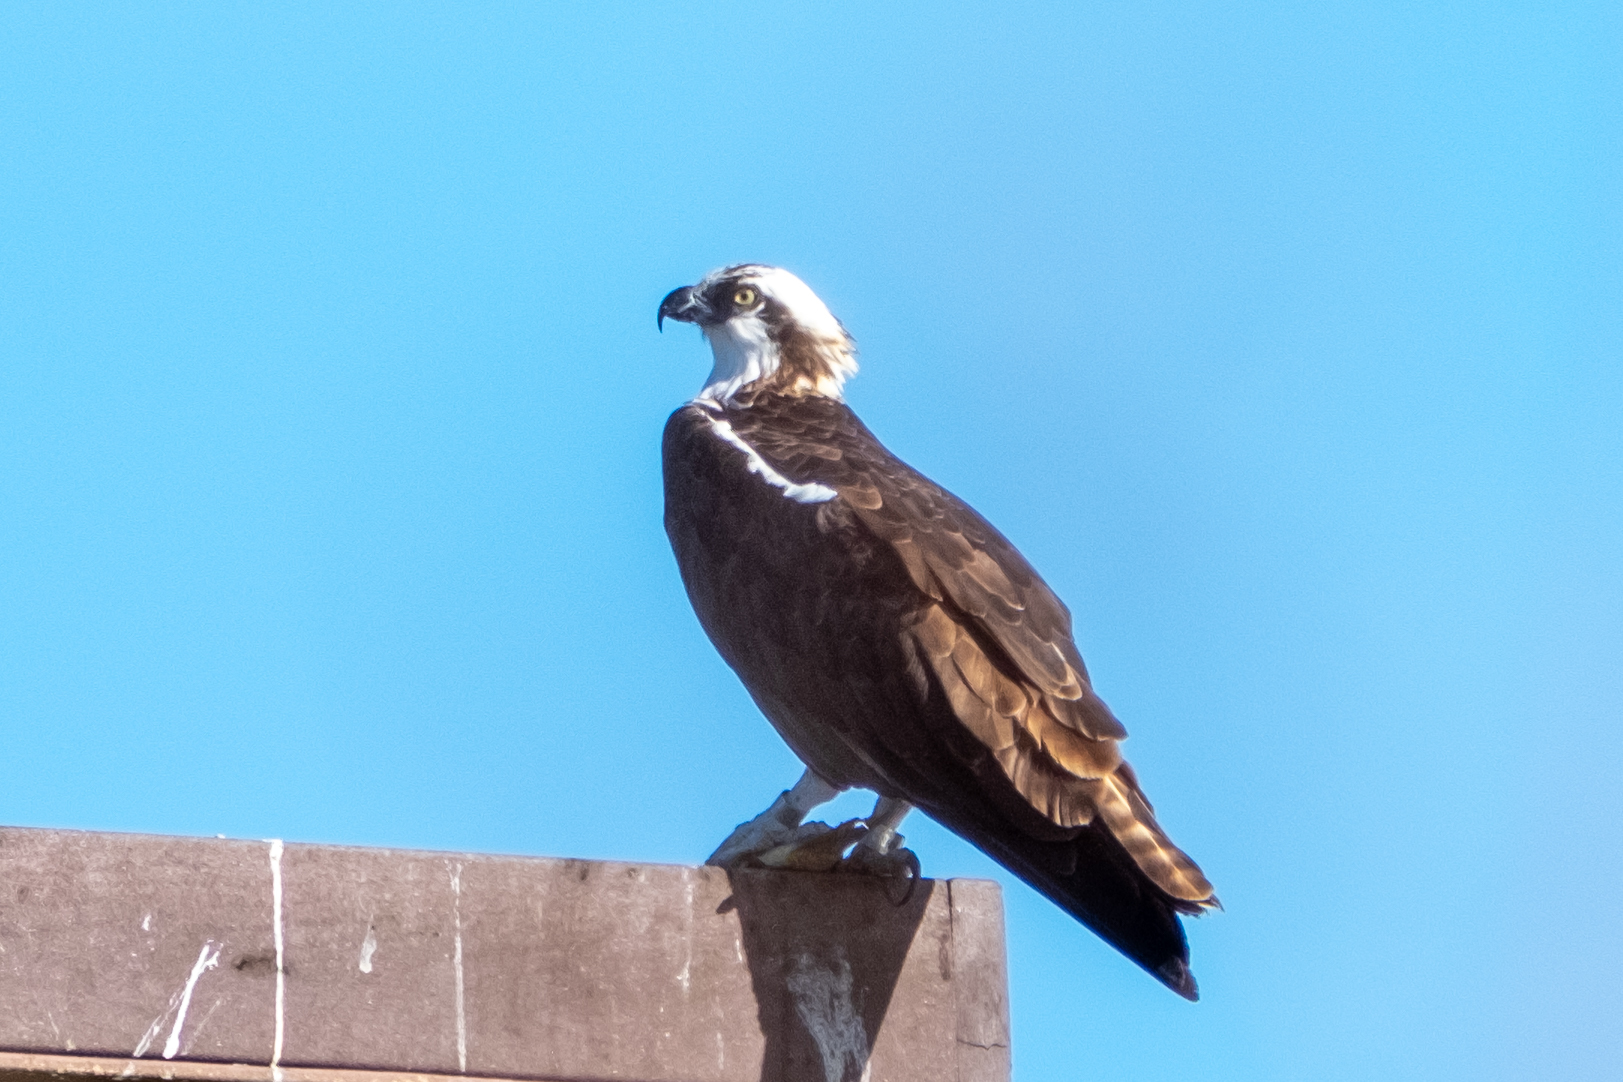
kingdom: Animalia
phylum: Chordata
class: Aves
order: Accipitriformes
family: Pandionidae
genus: Pandion
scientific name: Pandion haliaetus
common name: Osprey
